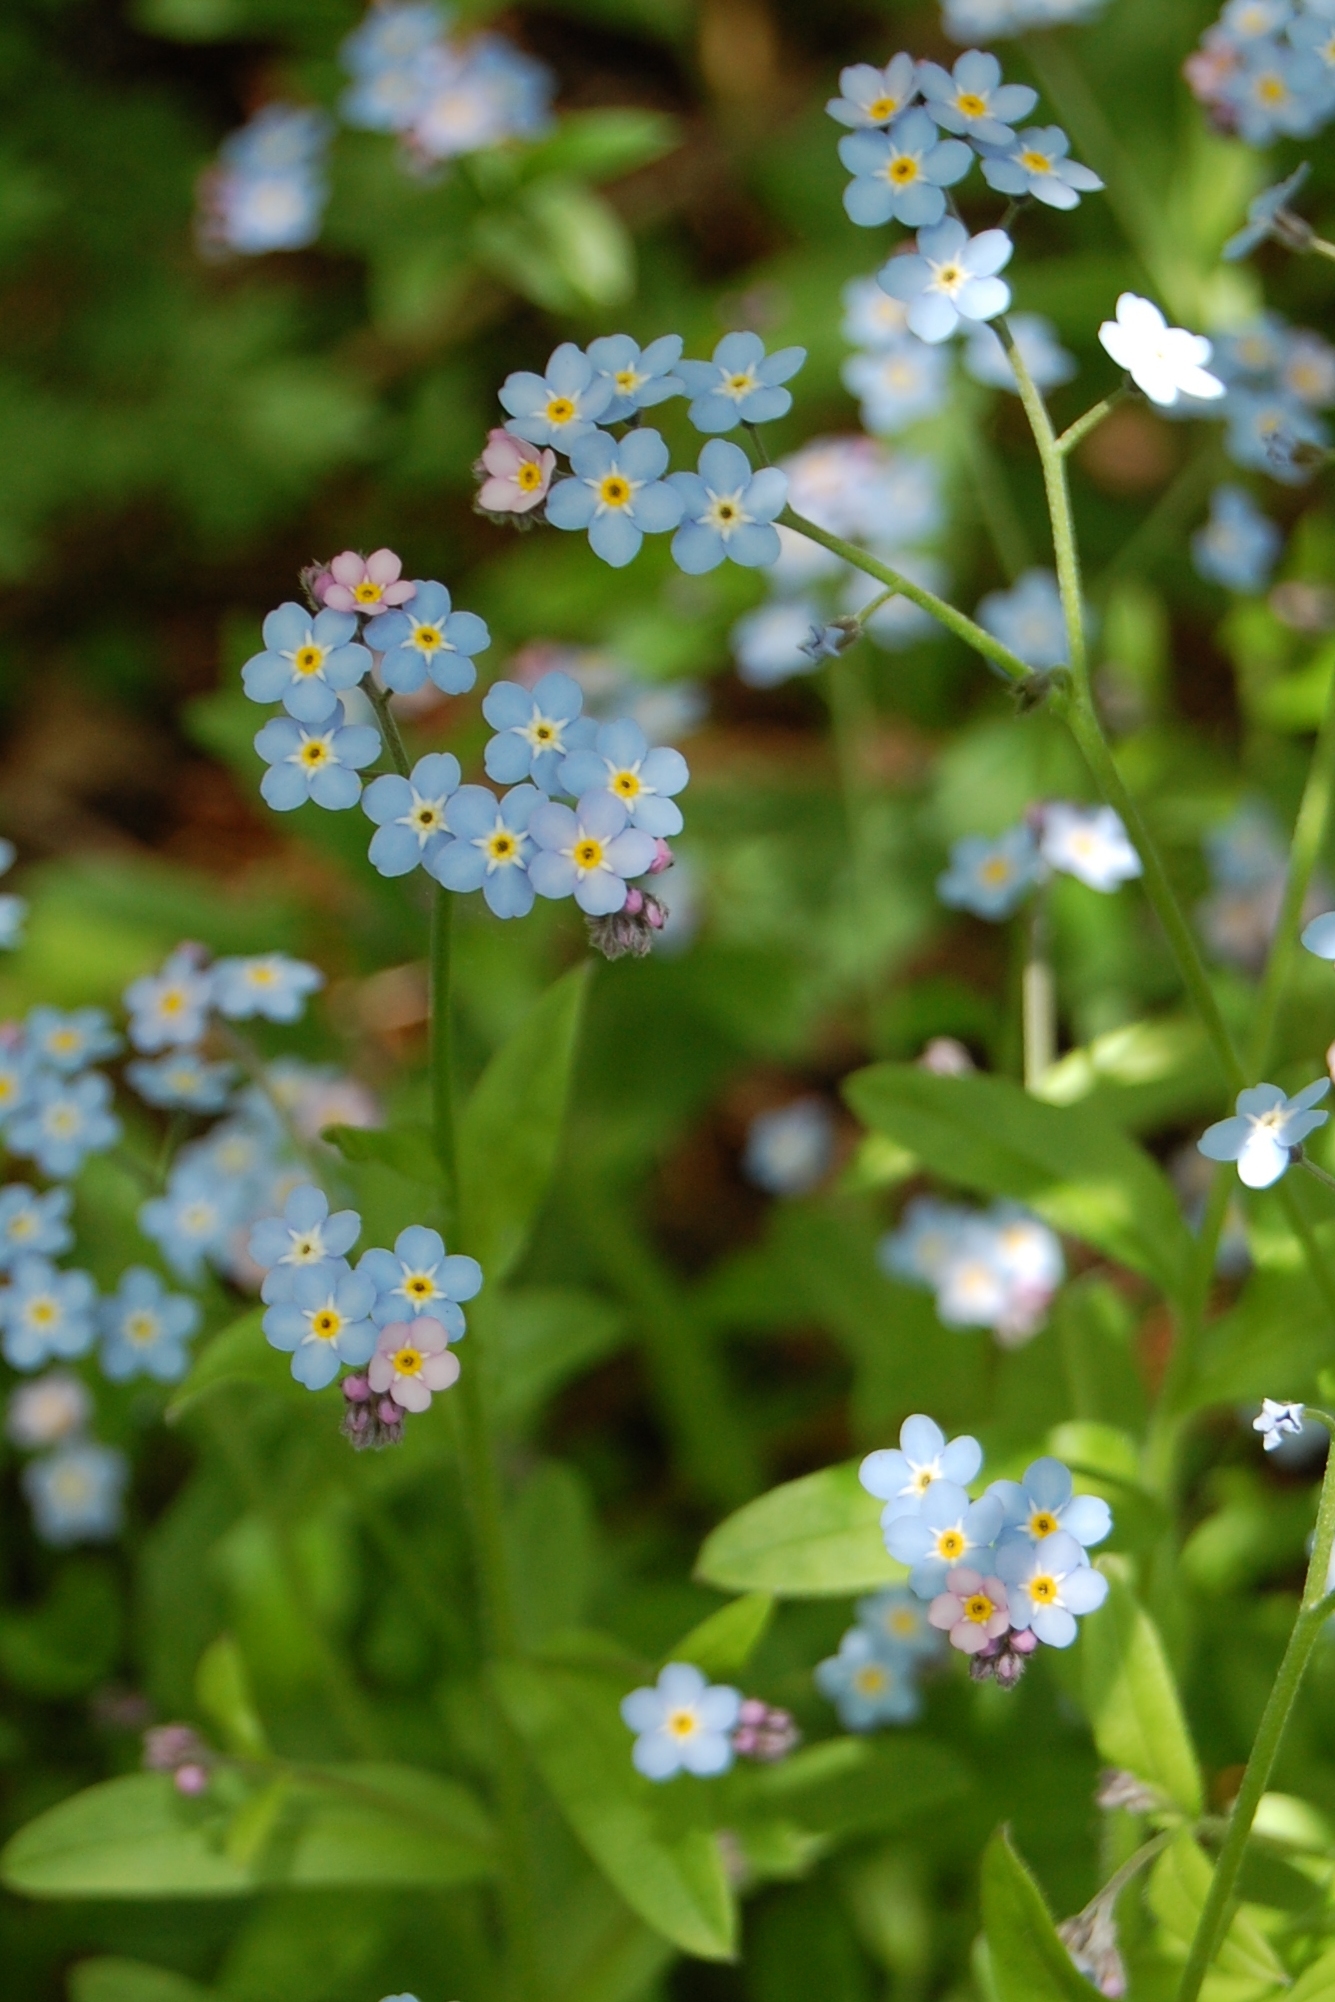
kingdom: Plantae
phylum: Tracheophyta
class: Magnoliopsida
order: Boraginales
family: Boraginaceae
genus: Myosotis
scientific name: Myosotis sylvatica
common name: Wood forget-me-not
